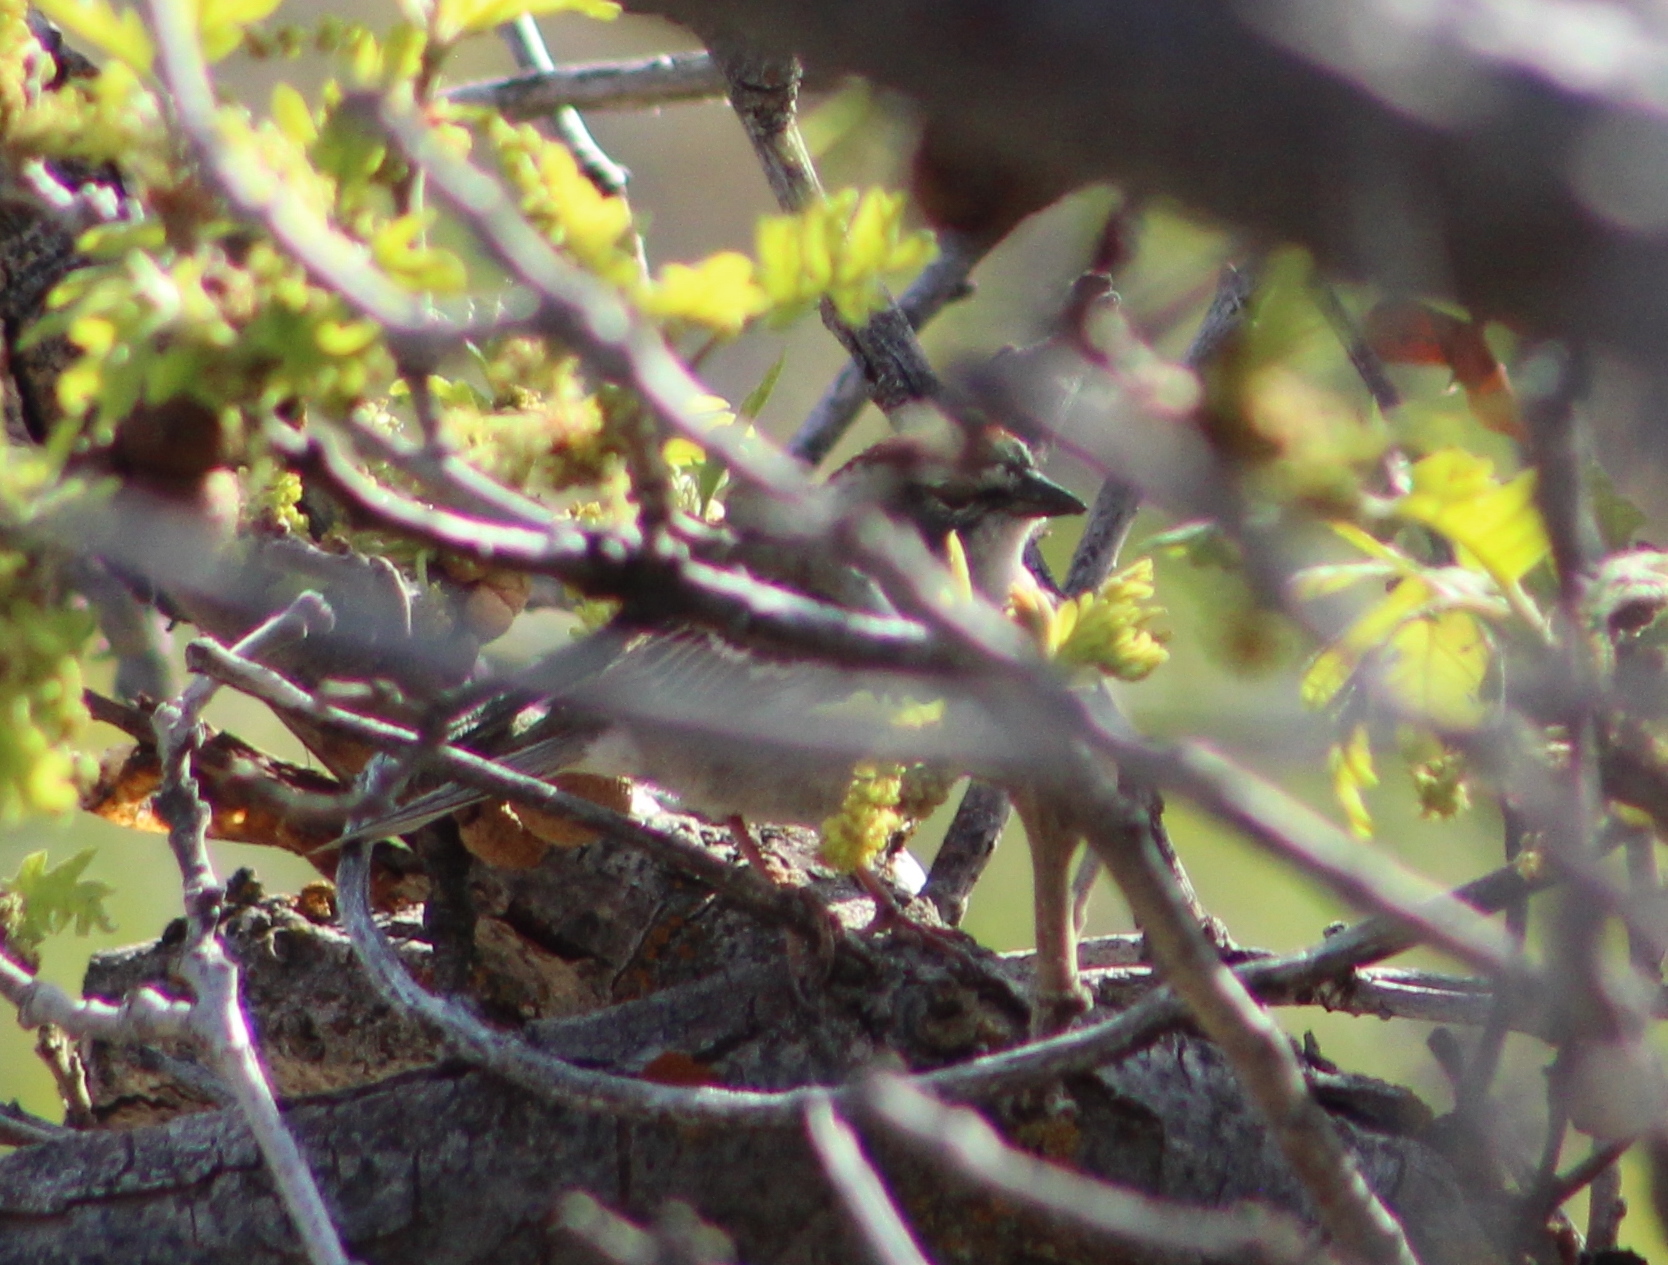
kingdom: Animalia
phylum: Chordata
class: Aves
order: Passeriformes
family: Passerellidae
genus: Spizella
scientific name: Spizella passerina
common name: Chipping sparrow
